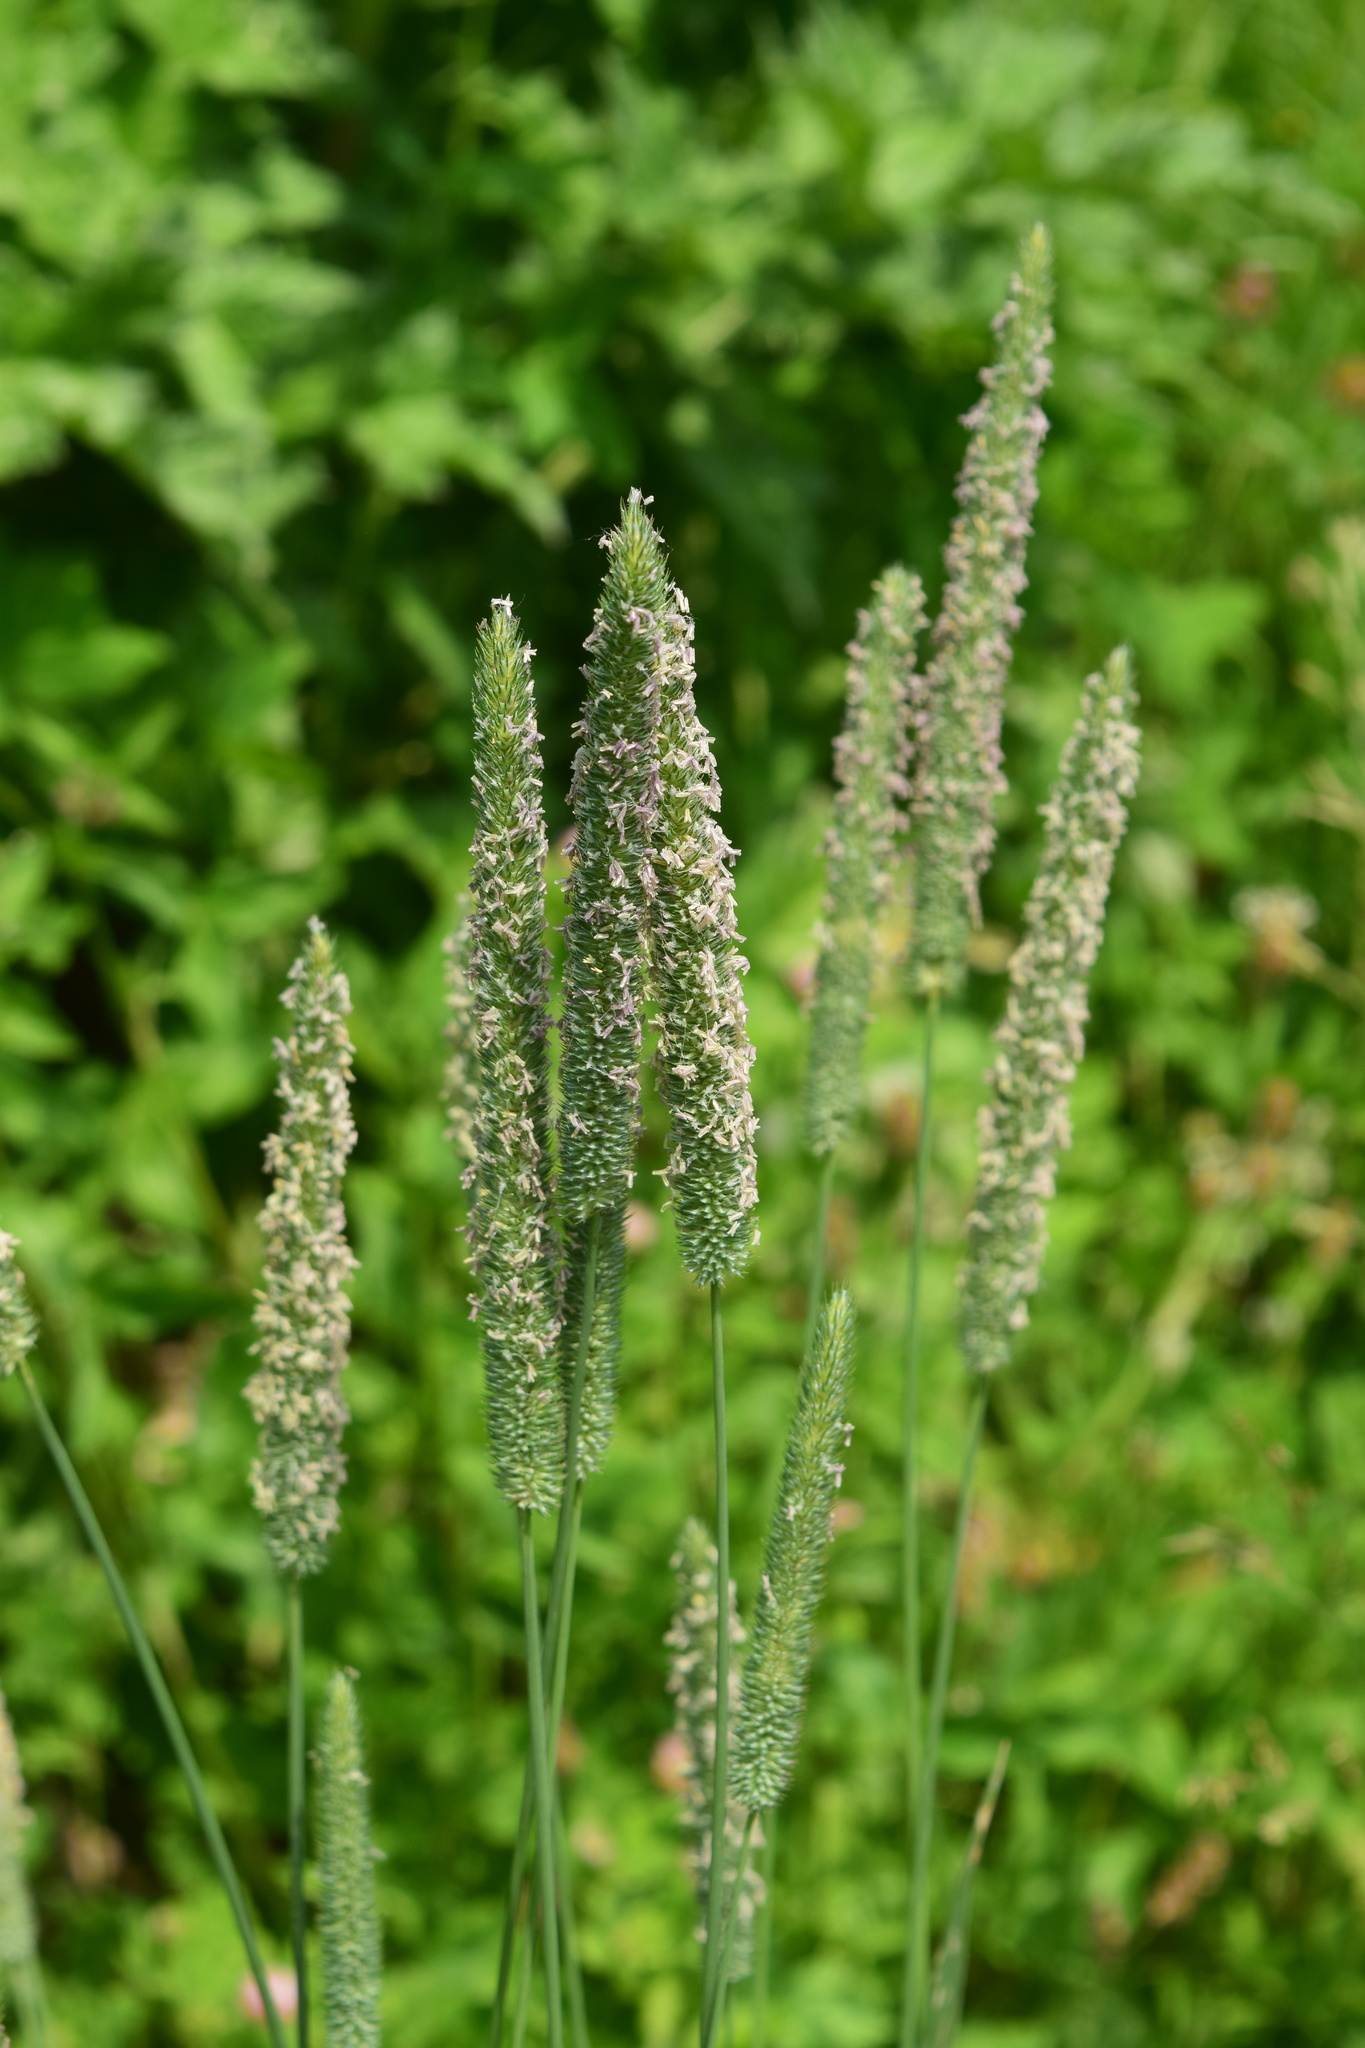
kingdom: Plantae
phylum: Tracheophyta
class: Liliopsida
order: Poales
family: Poaceae
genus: Phleum
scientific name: Phleum pratense
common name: Timothy grass
